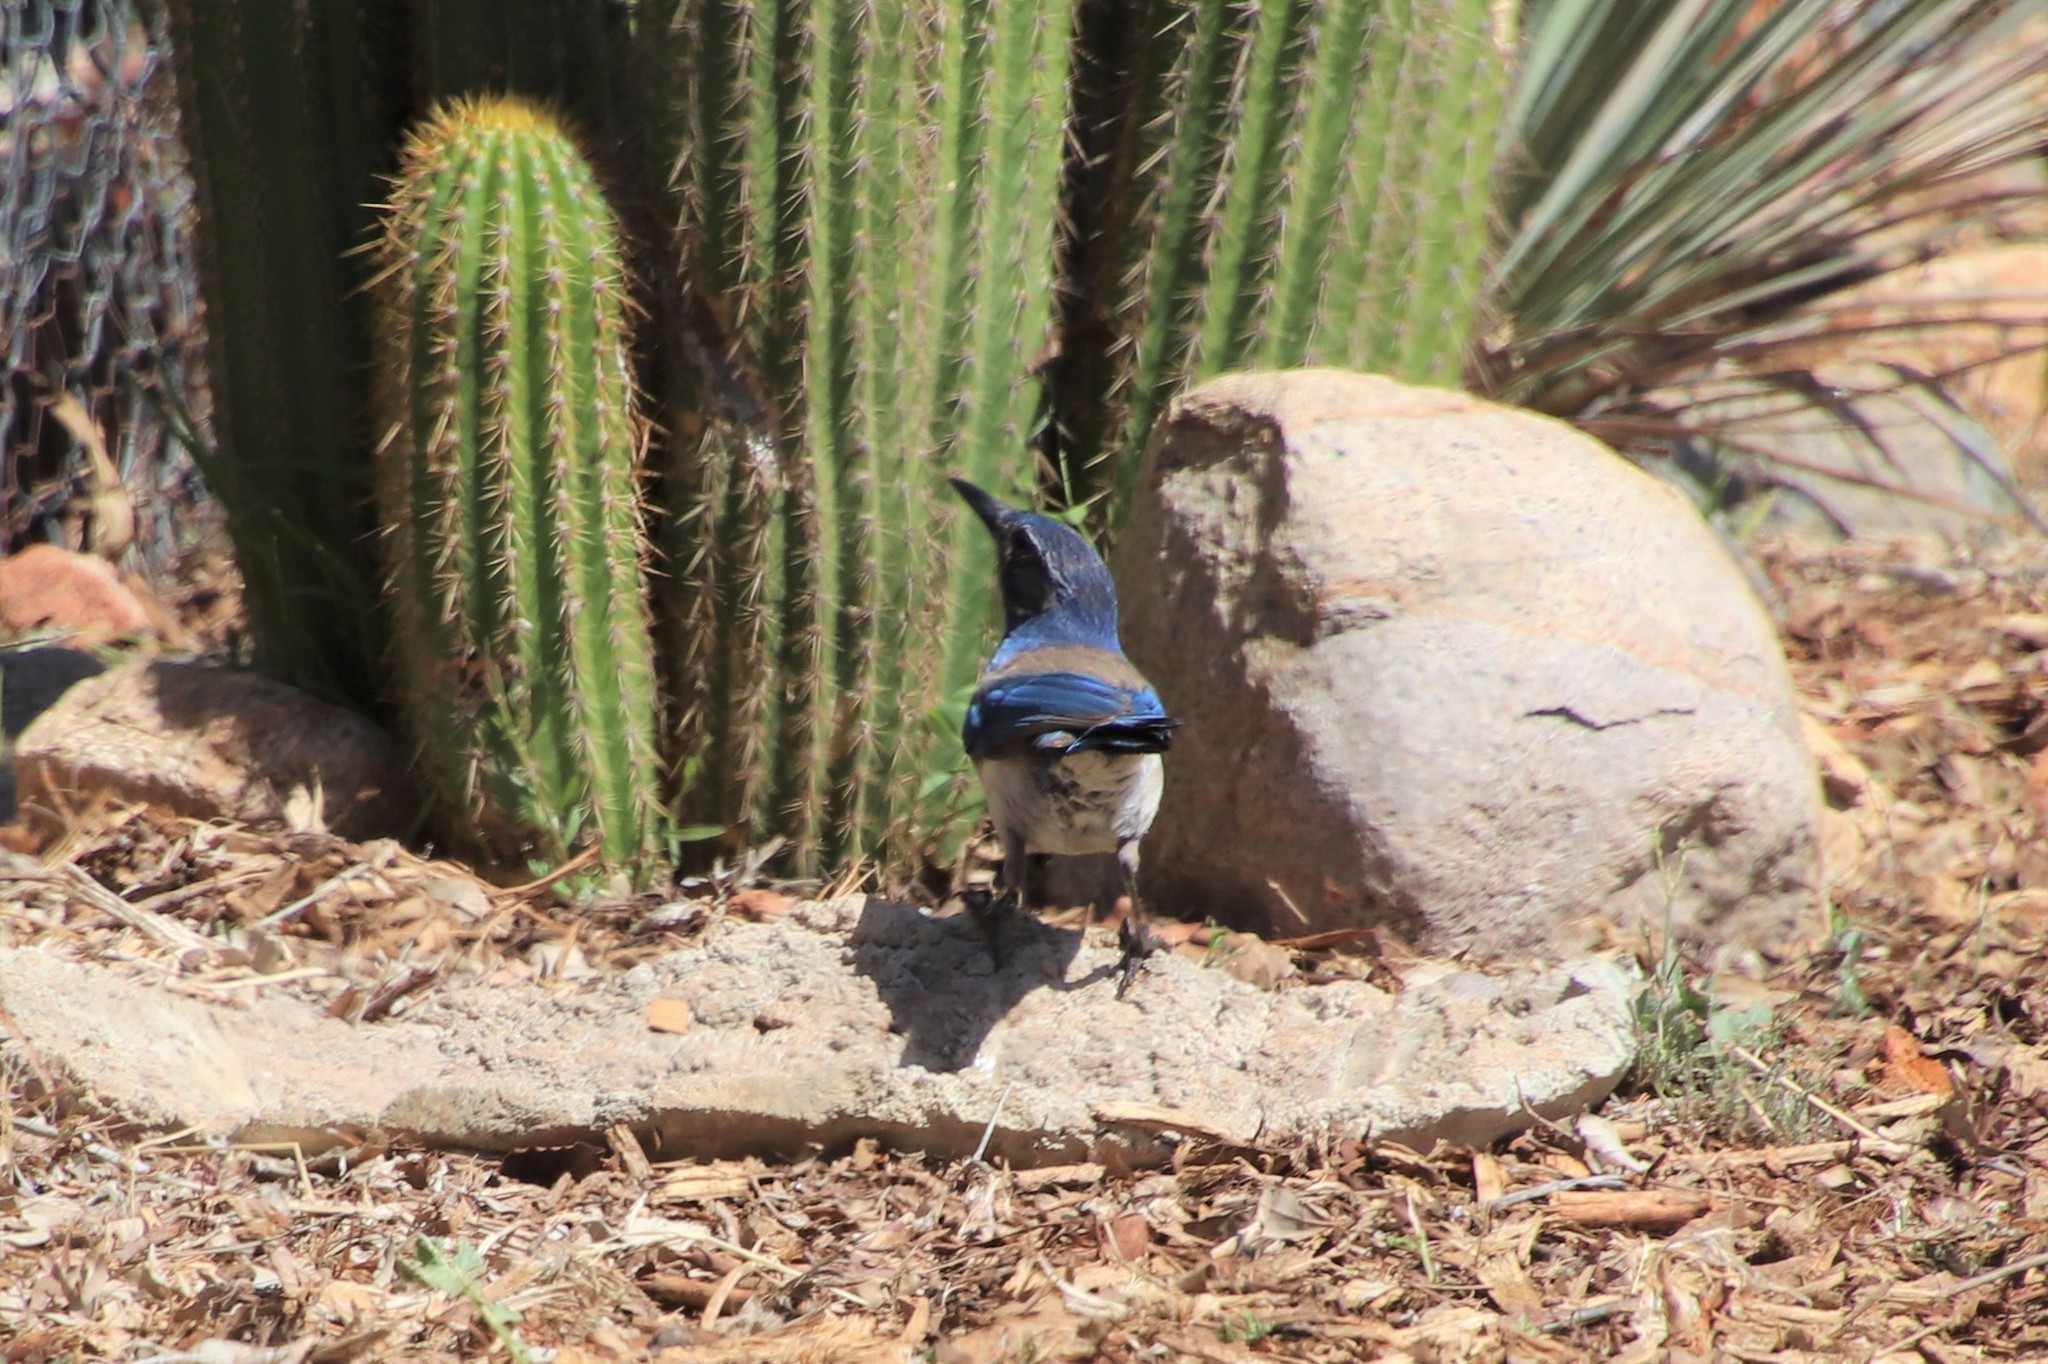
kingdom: Animalia
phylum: Chordata
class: Aves
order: Passeriformes
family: Corvidae
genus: Aphelocoma
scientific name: Aphelocoma californica
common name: California scrub-jay
